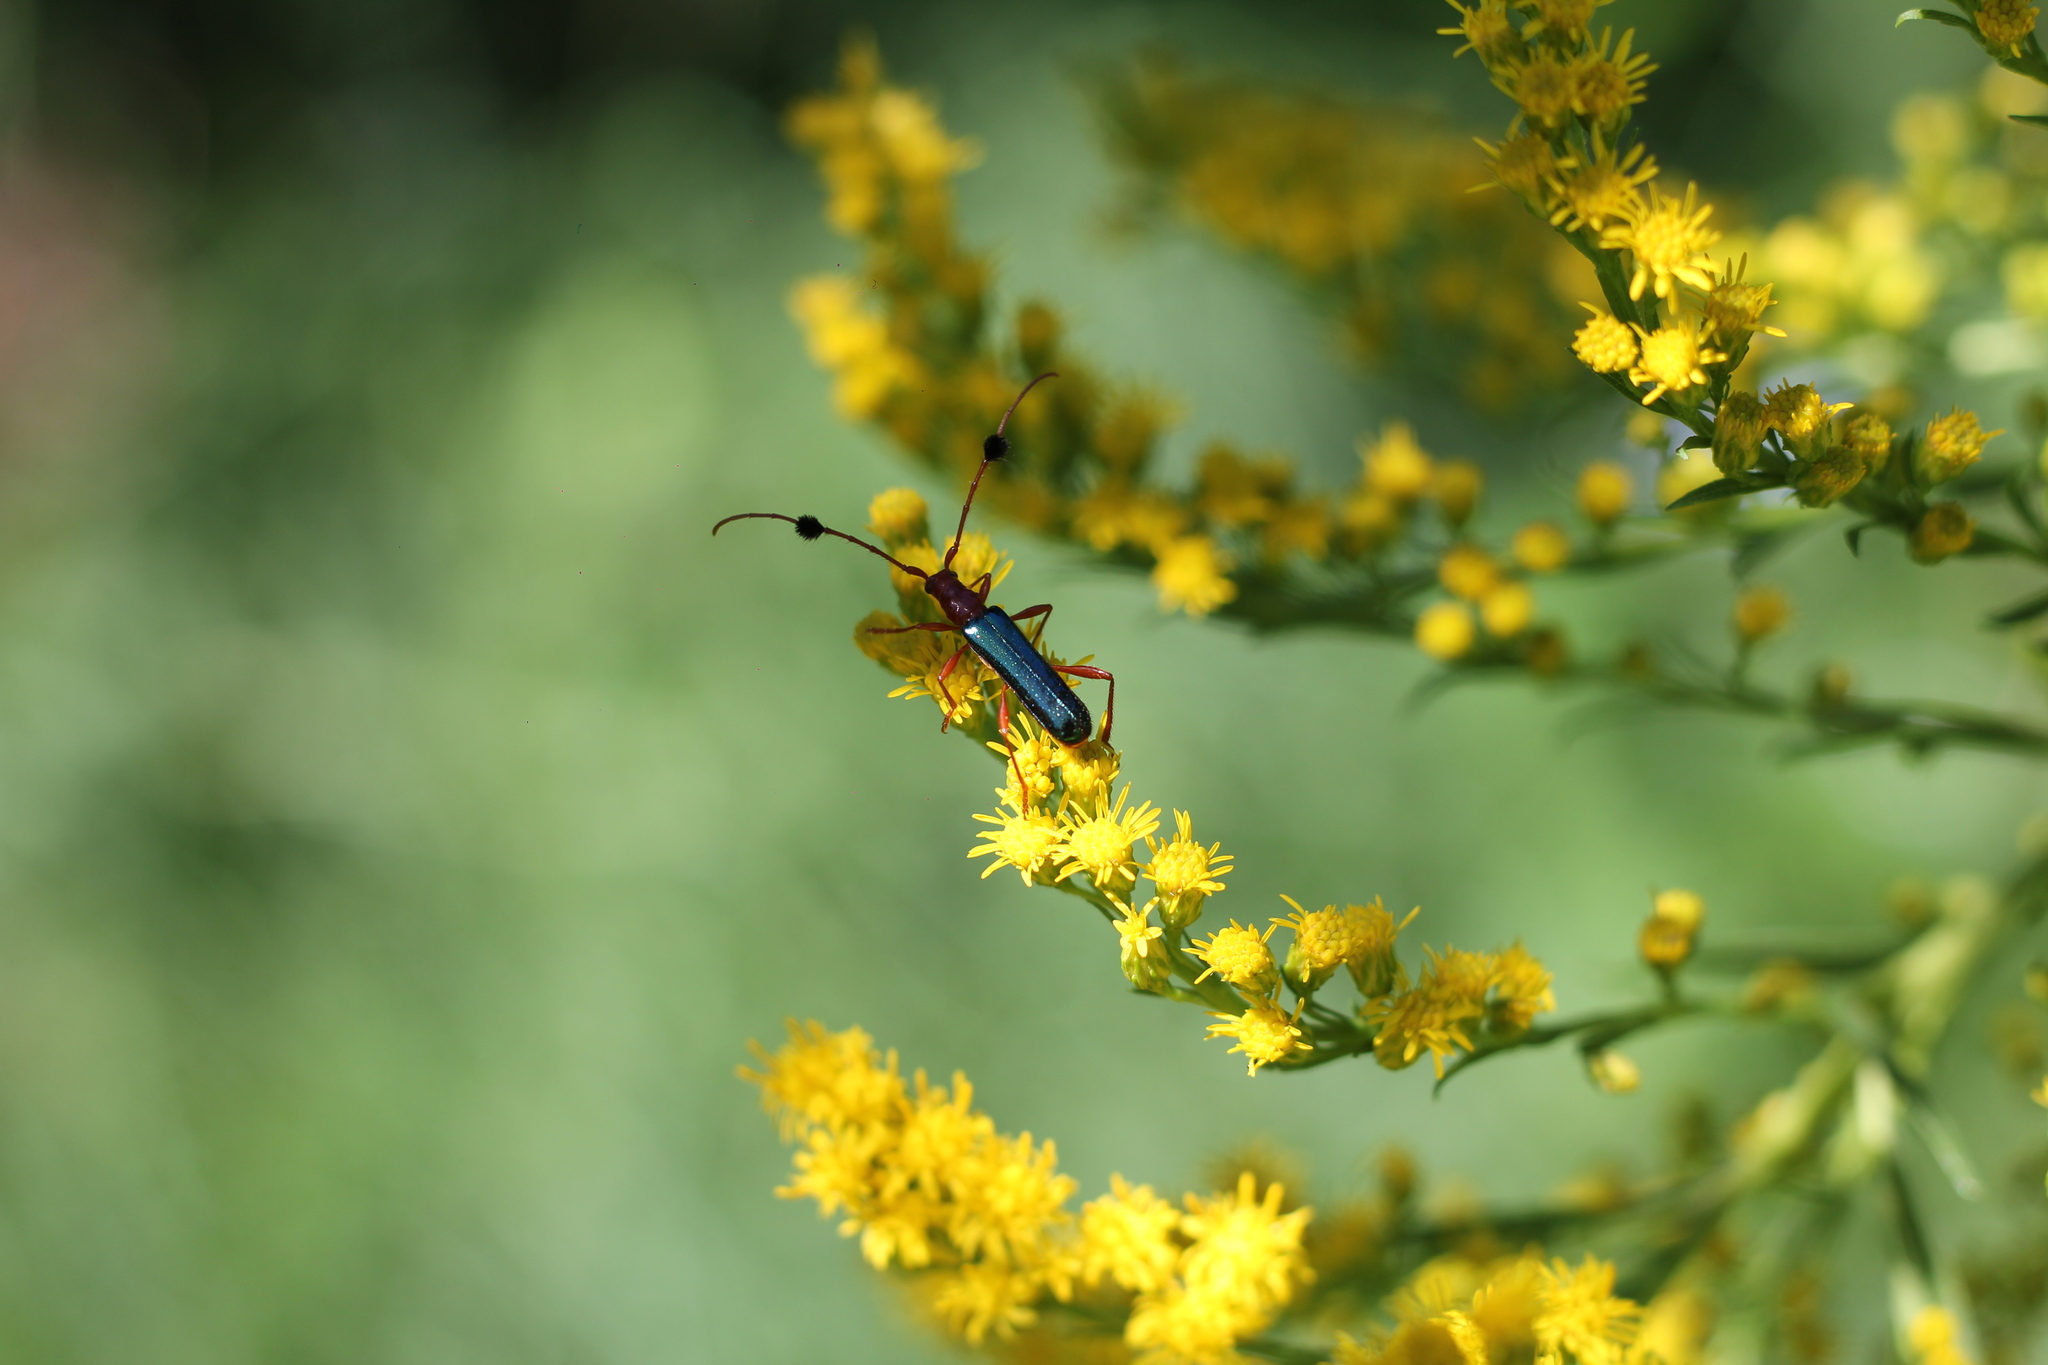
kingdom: Animalia
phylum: Arthropoda
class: Insecta
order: Coleoptera
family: Cerambycidae
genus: Paromoeocerus
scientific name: Paromoeocerus barbicornis
